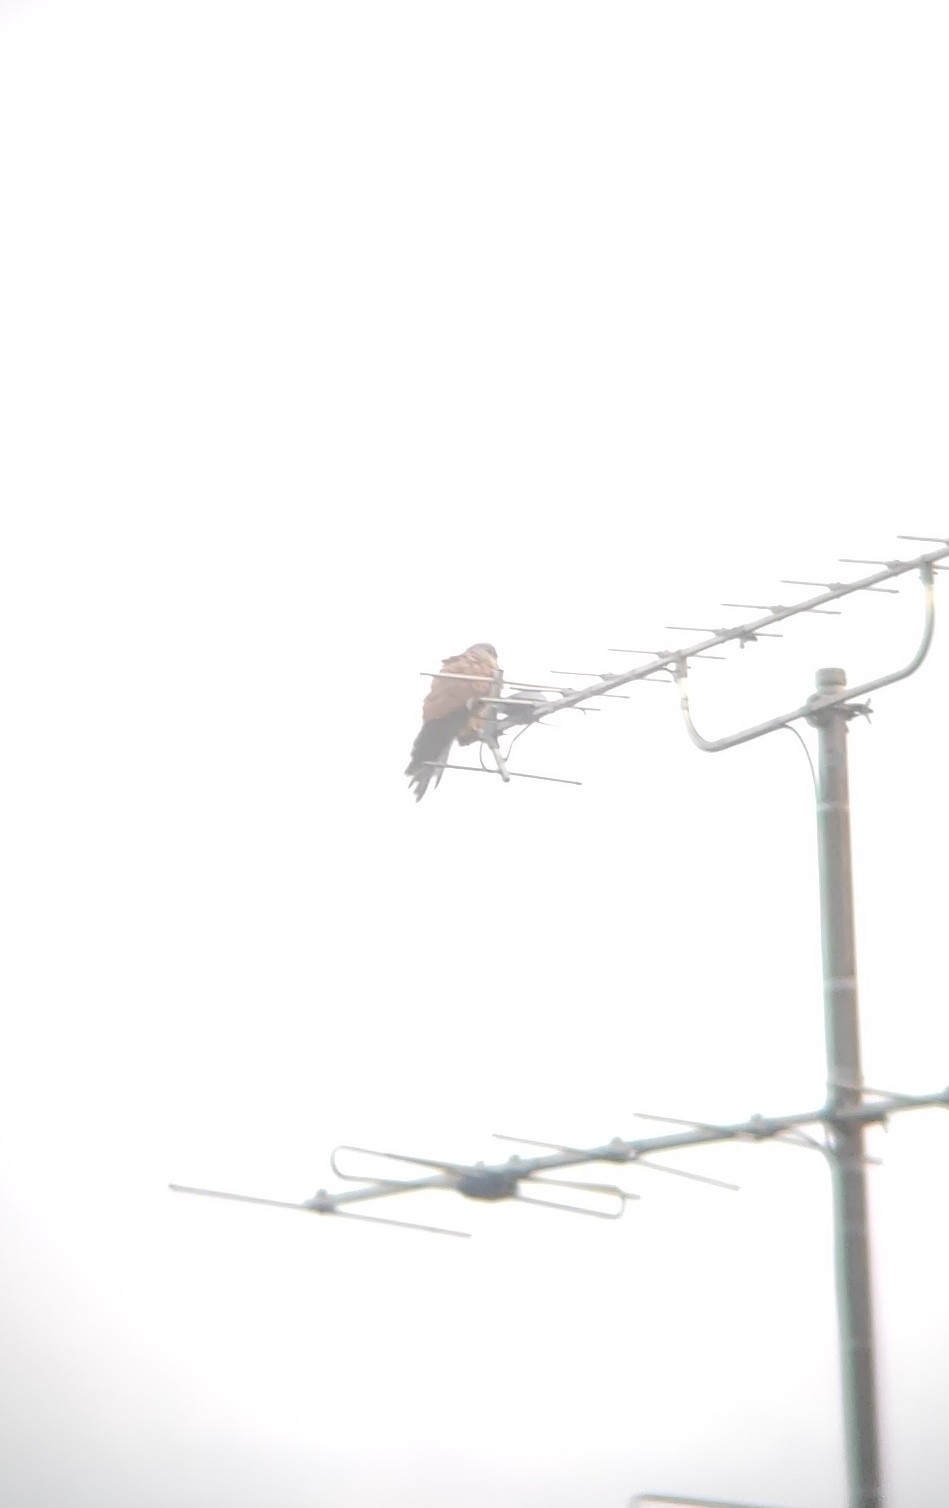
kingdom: Animalia
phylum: Chordata
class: Aves
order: Falconiformes
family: Falconidae
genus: Falco
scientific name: Falco tinnunculus
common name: Common kestrel
